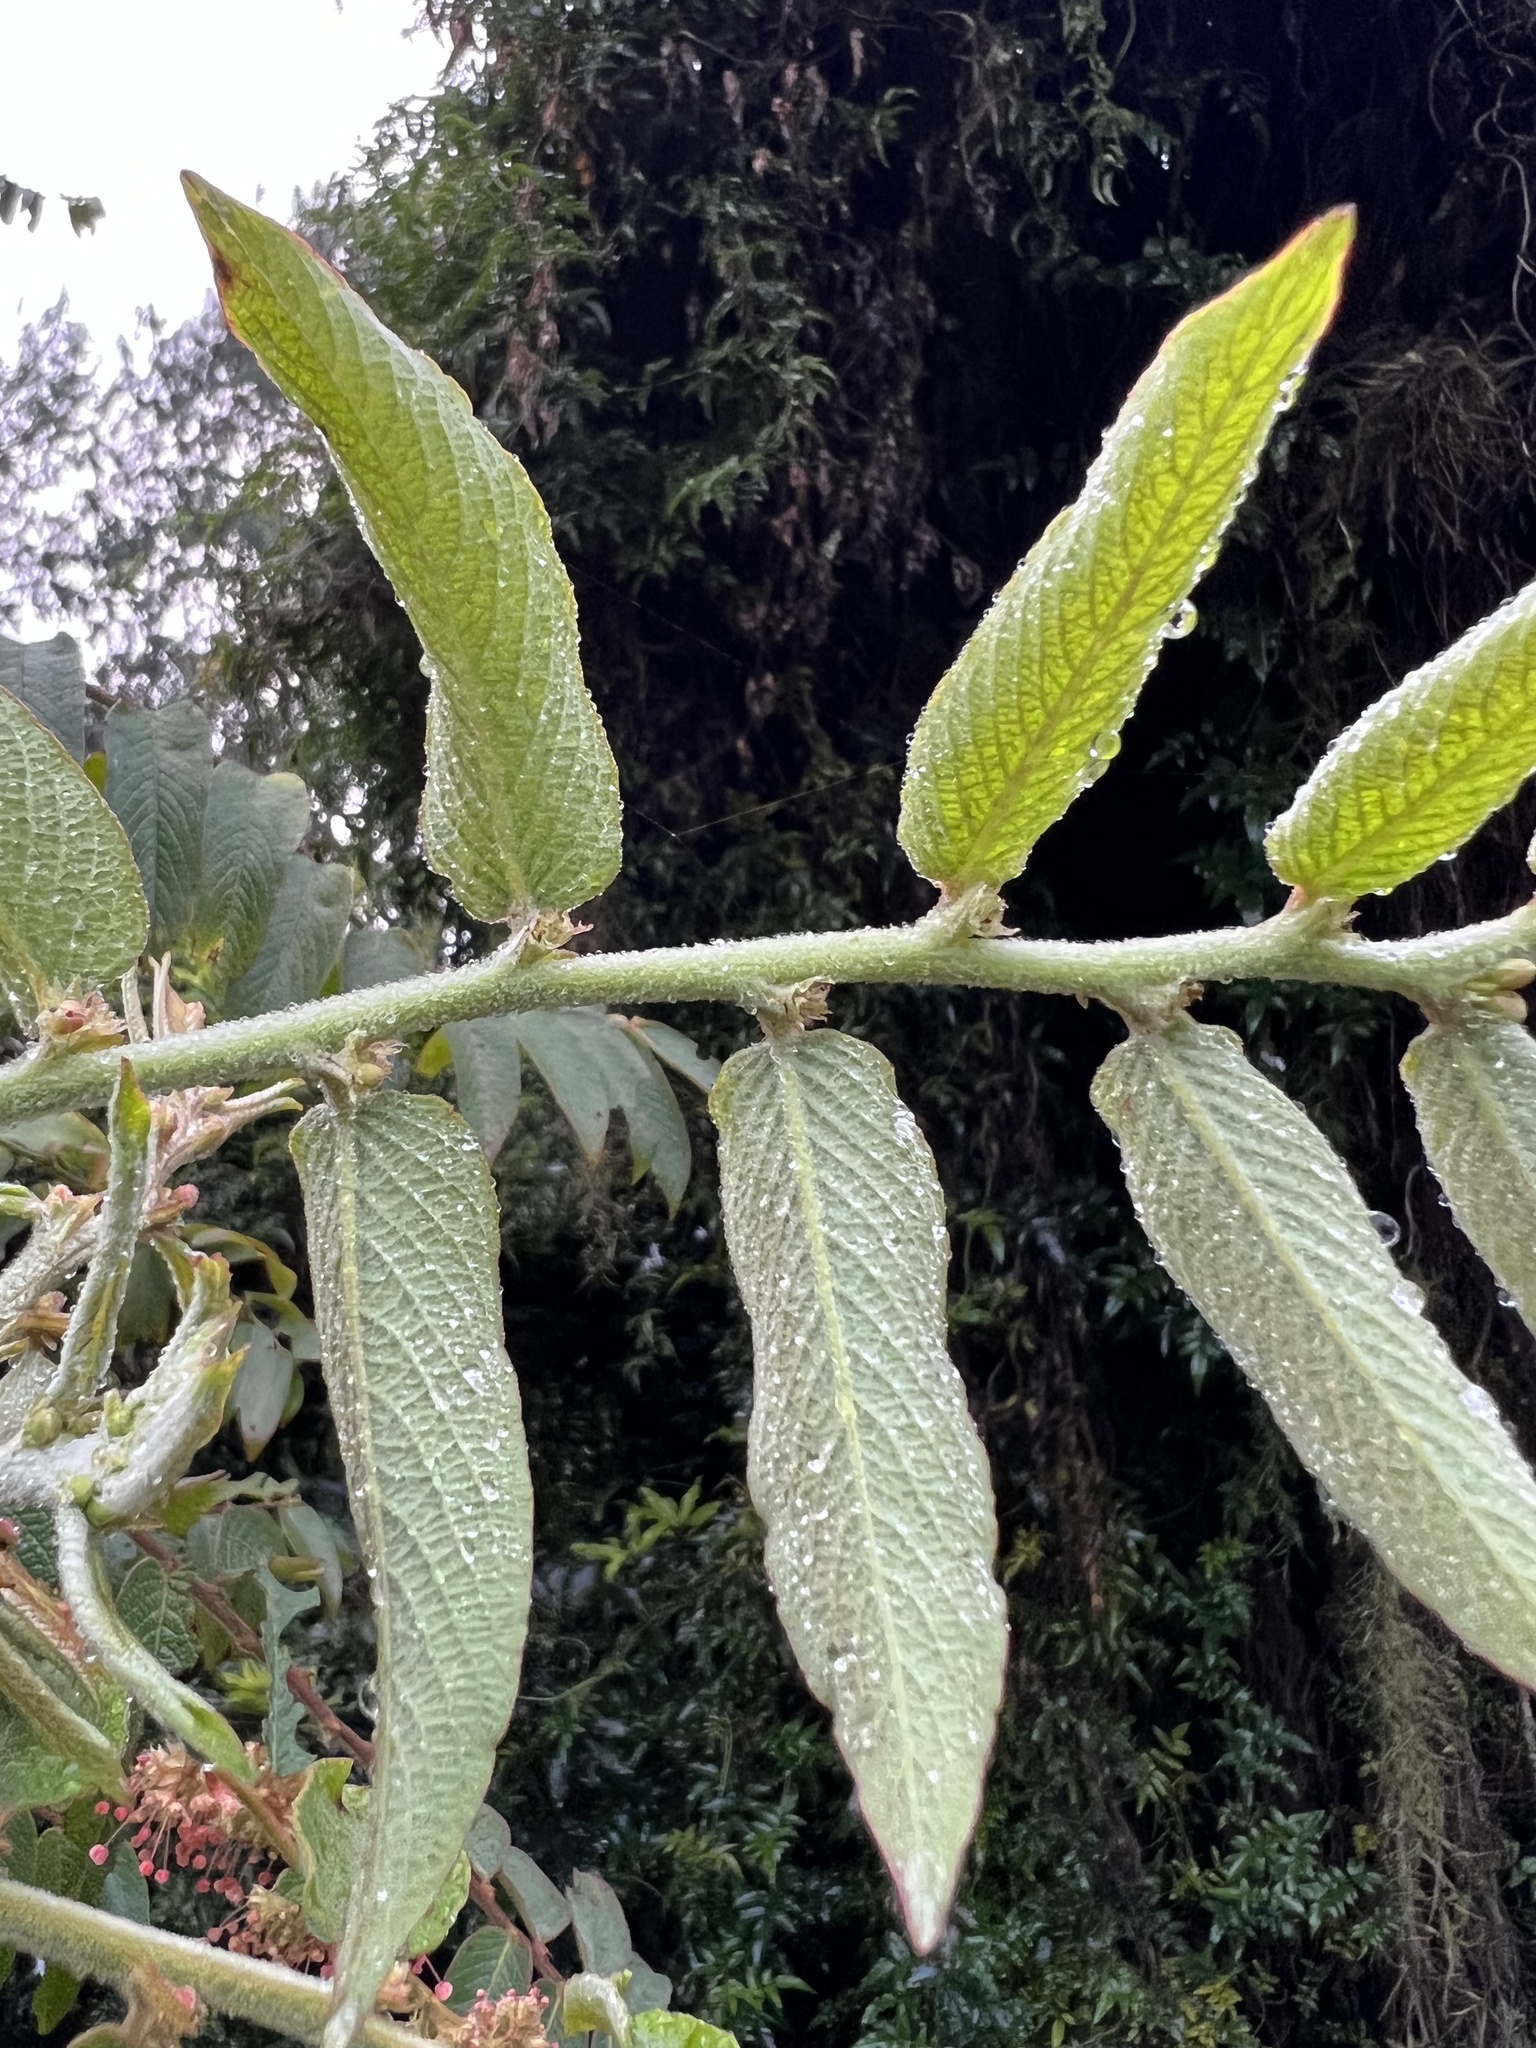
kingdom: Plantae
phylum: Tracheophyta
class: Magnoliopsida
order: Malpighiales
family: Phyllanthaceae
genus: Phyllanthus
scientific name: Phyllanthus salviifolius
